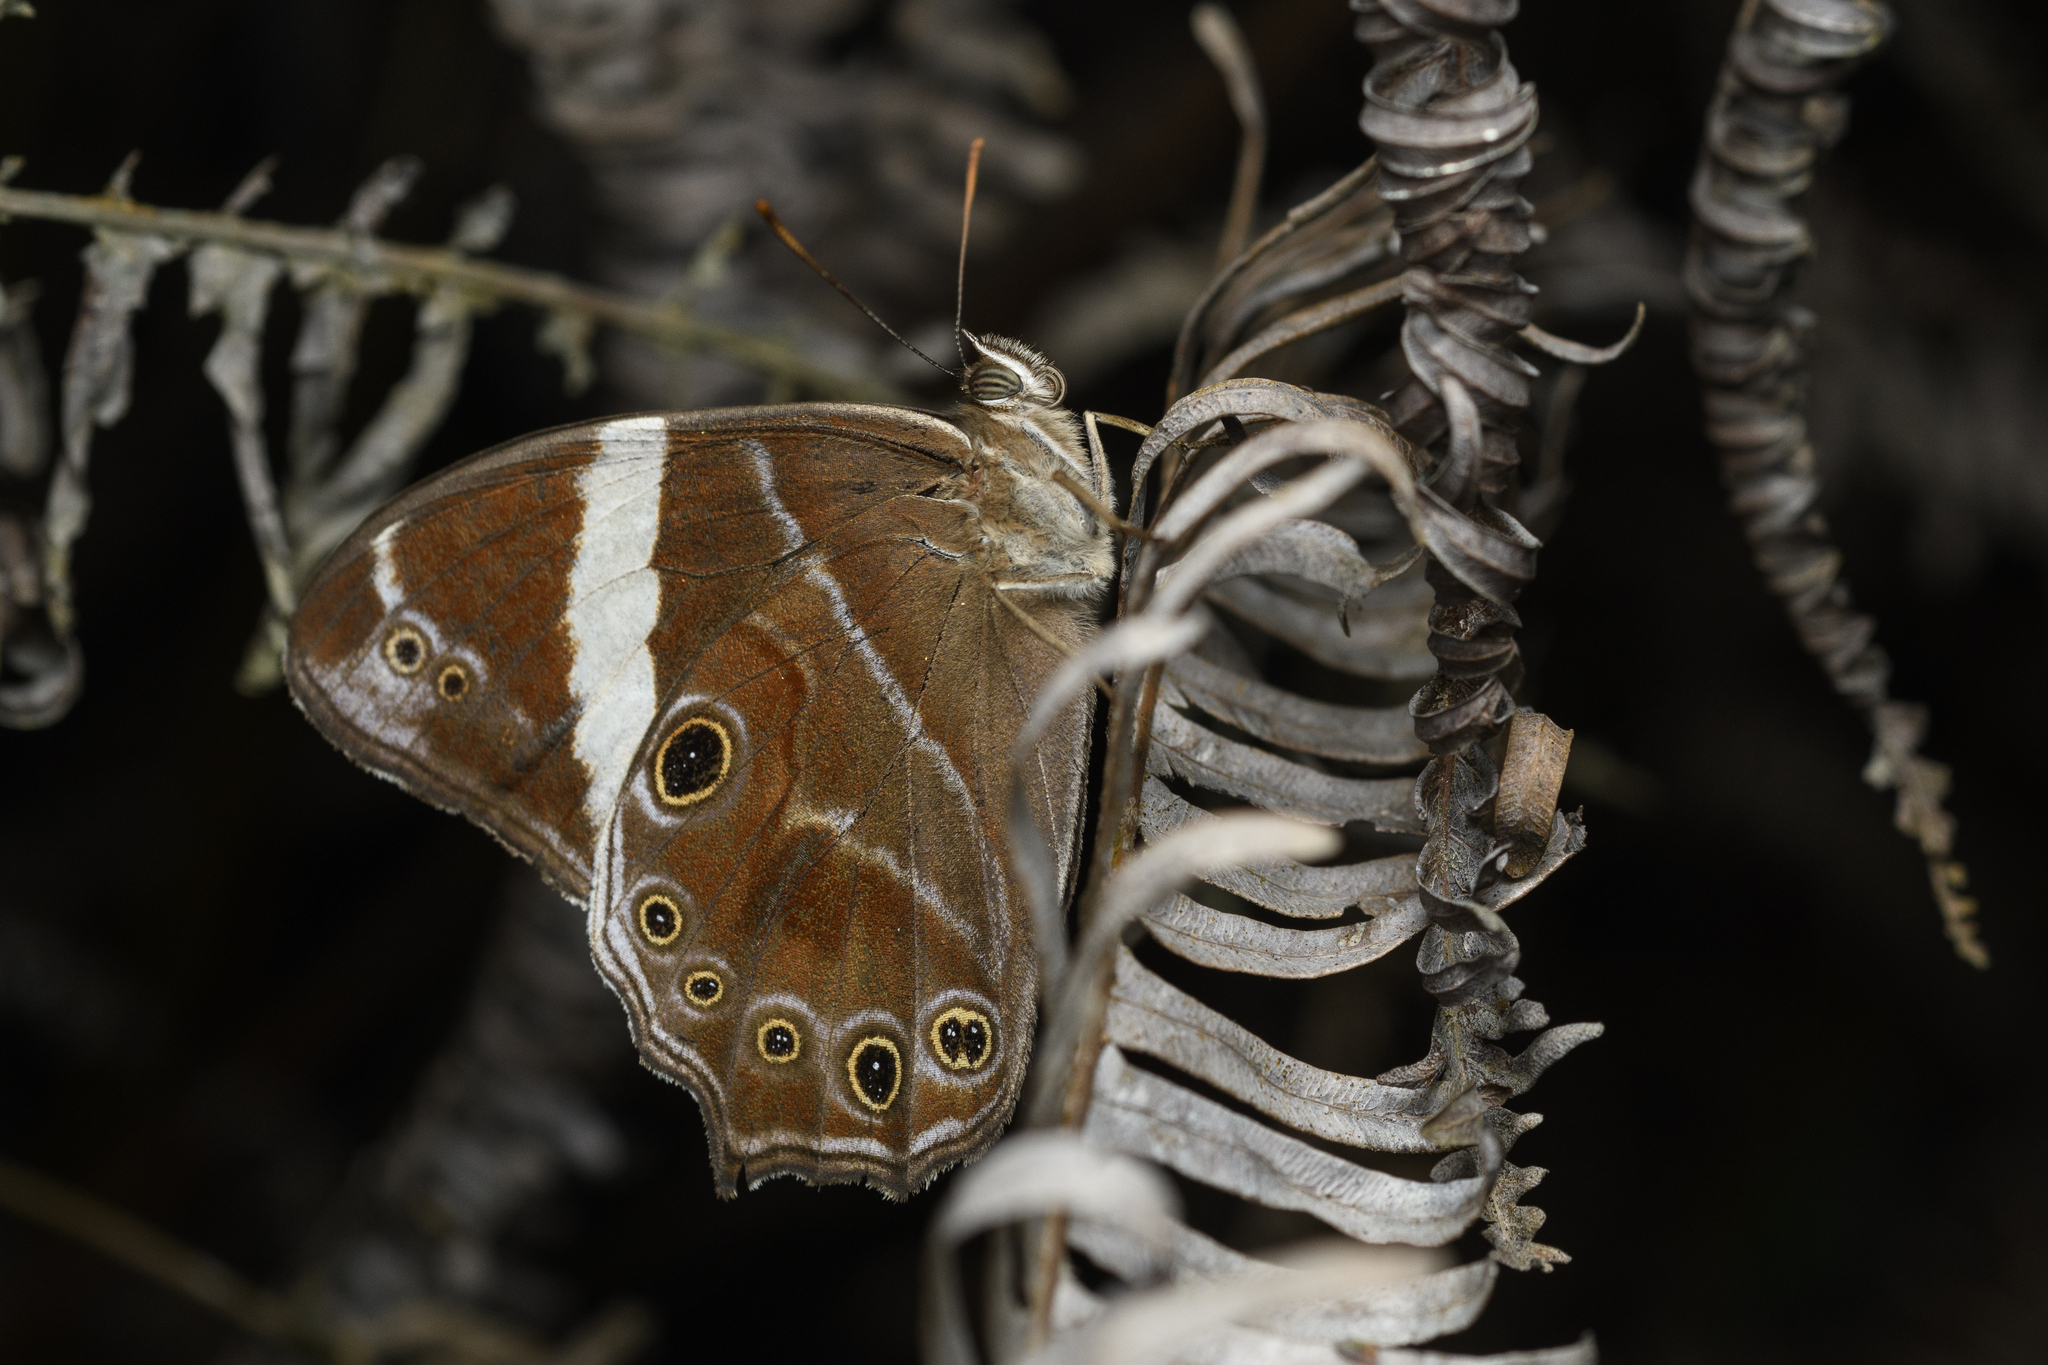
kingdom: Animalia
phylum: Arthropoda
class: Insecta
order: Lepidoptera
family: Nymphalidae
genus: Lethe
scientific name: Lethe confusa
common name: Banded treebrown
